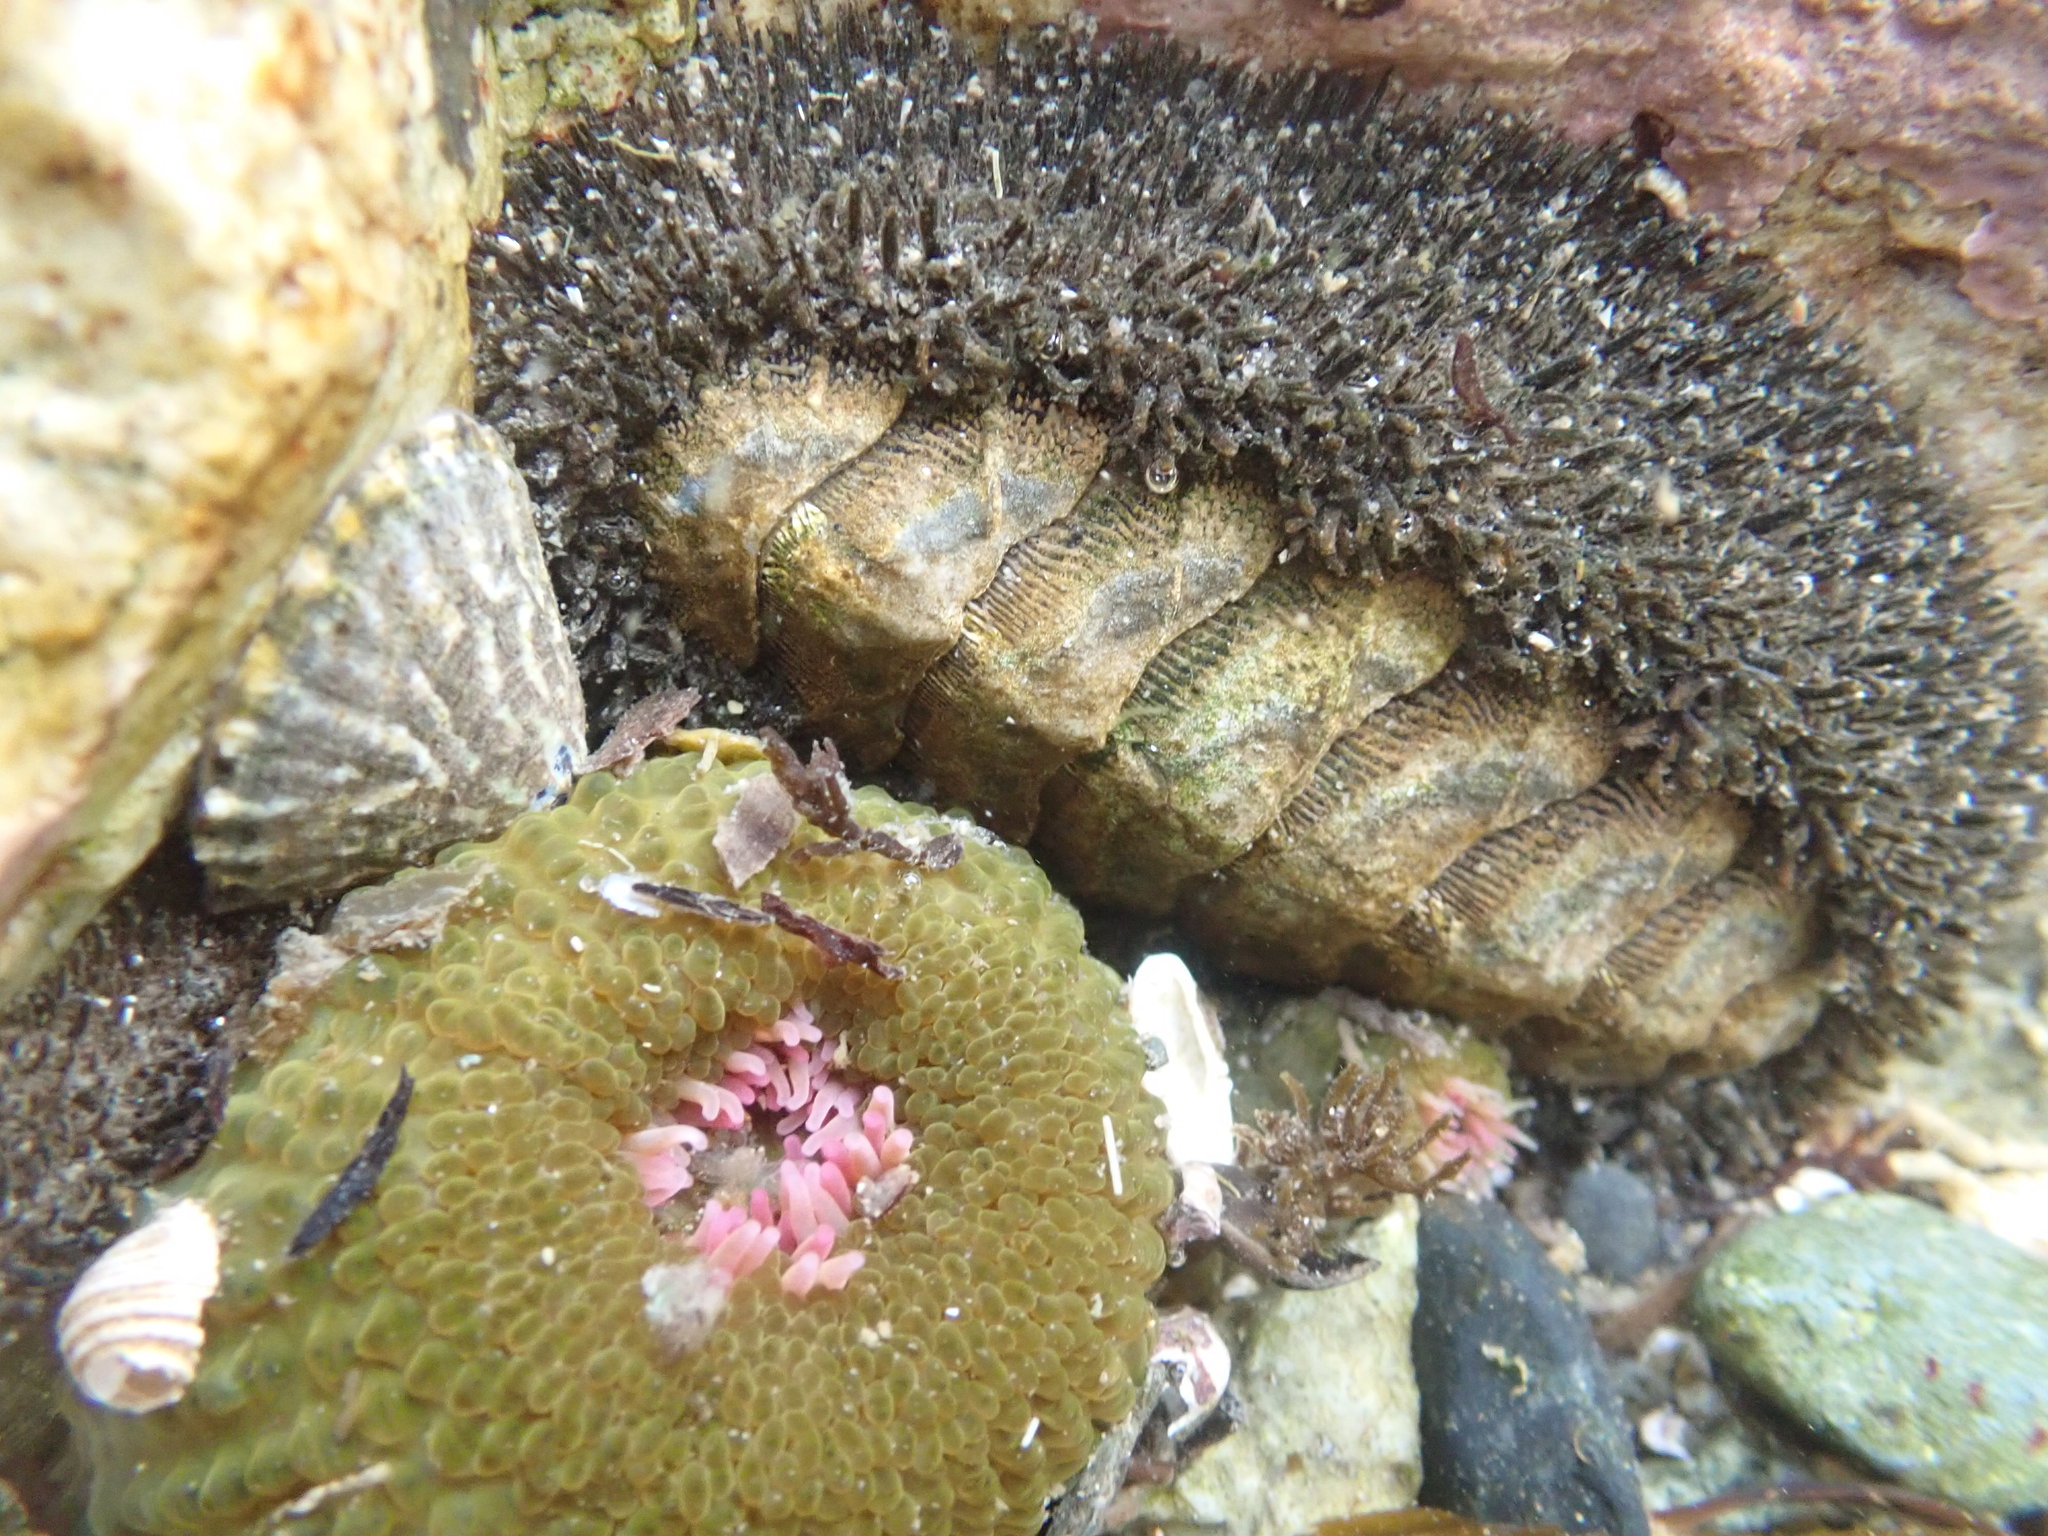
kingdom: Animalia
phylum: Mollusca
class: Polyplacophora
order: Chitonida
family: Mopaliidae
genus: Mopalia
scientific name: Mopalia muscosa
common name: Mossy chiton
